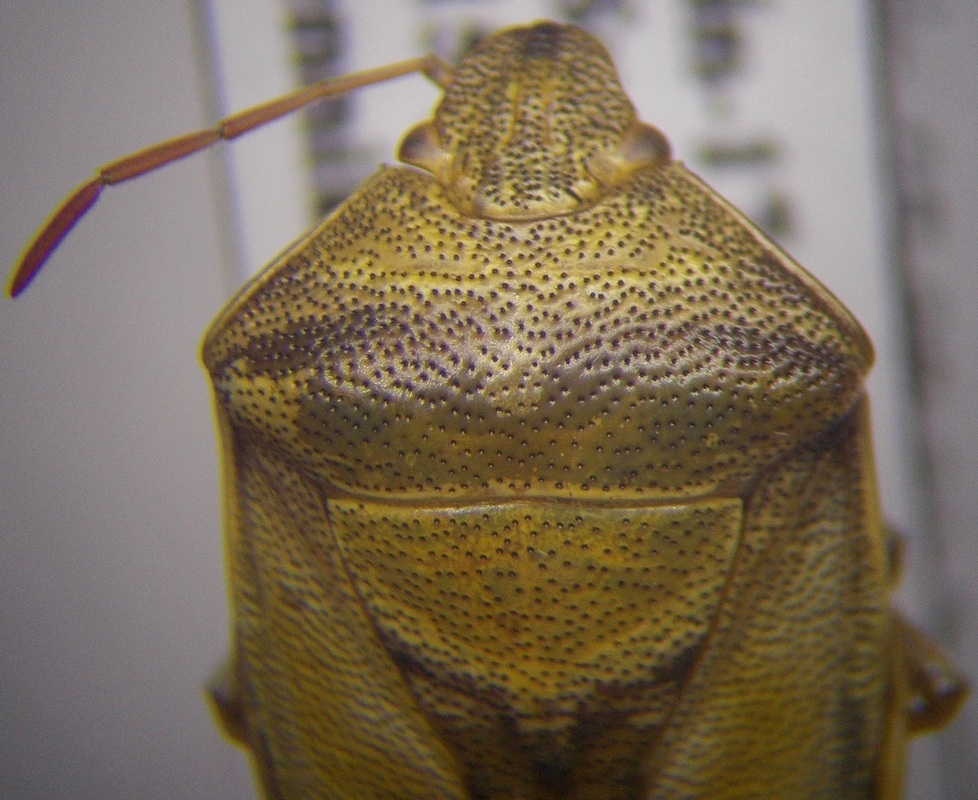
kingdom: Animalia
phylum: Arthropoda
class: Insecta
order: Hemiptera
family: Pentatomidae
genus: Piezodorus
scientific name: Piezodorus lituratus
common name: Stink bug
